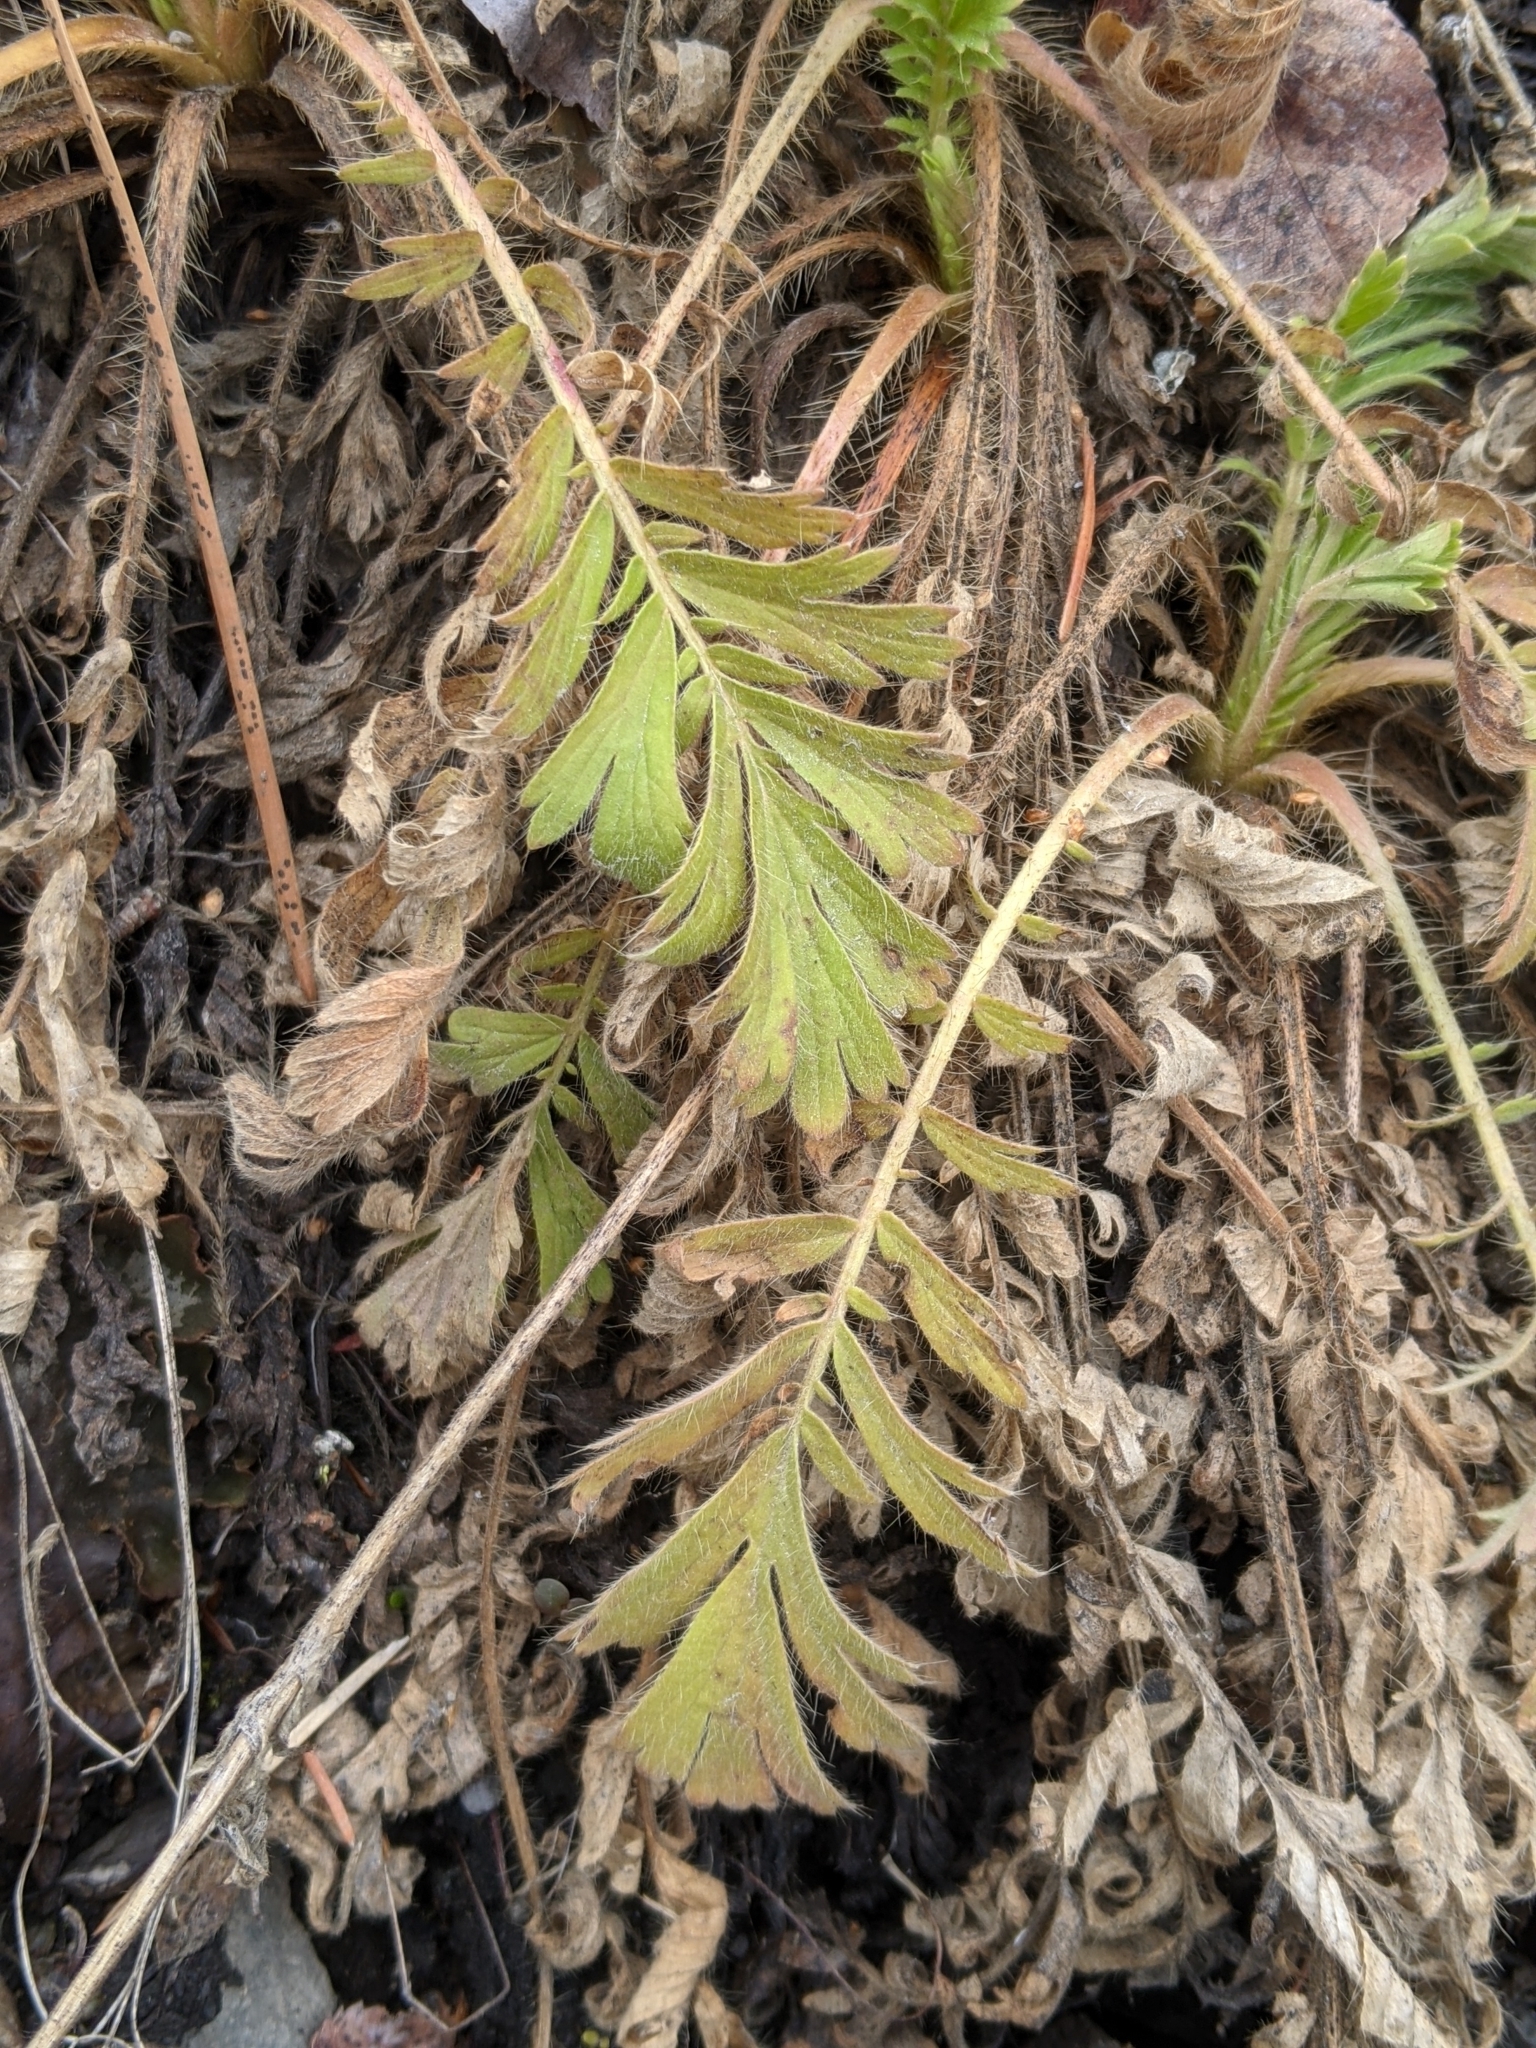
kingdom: Plantae
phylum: Tracheophyta
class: Magnoliopsida
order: Rosales
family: Rosaceae
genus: Geum
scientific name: Geum triflorum
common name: Old man's whiskers
